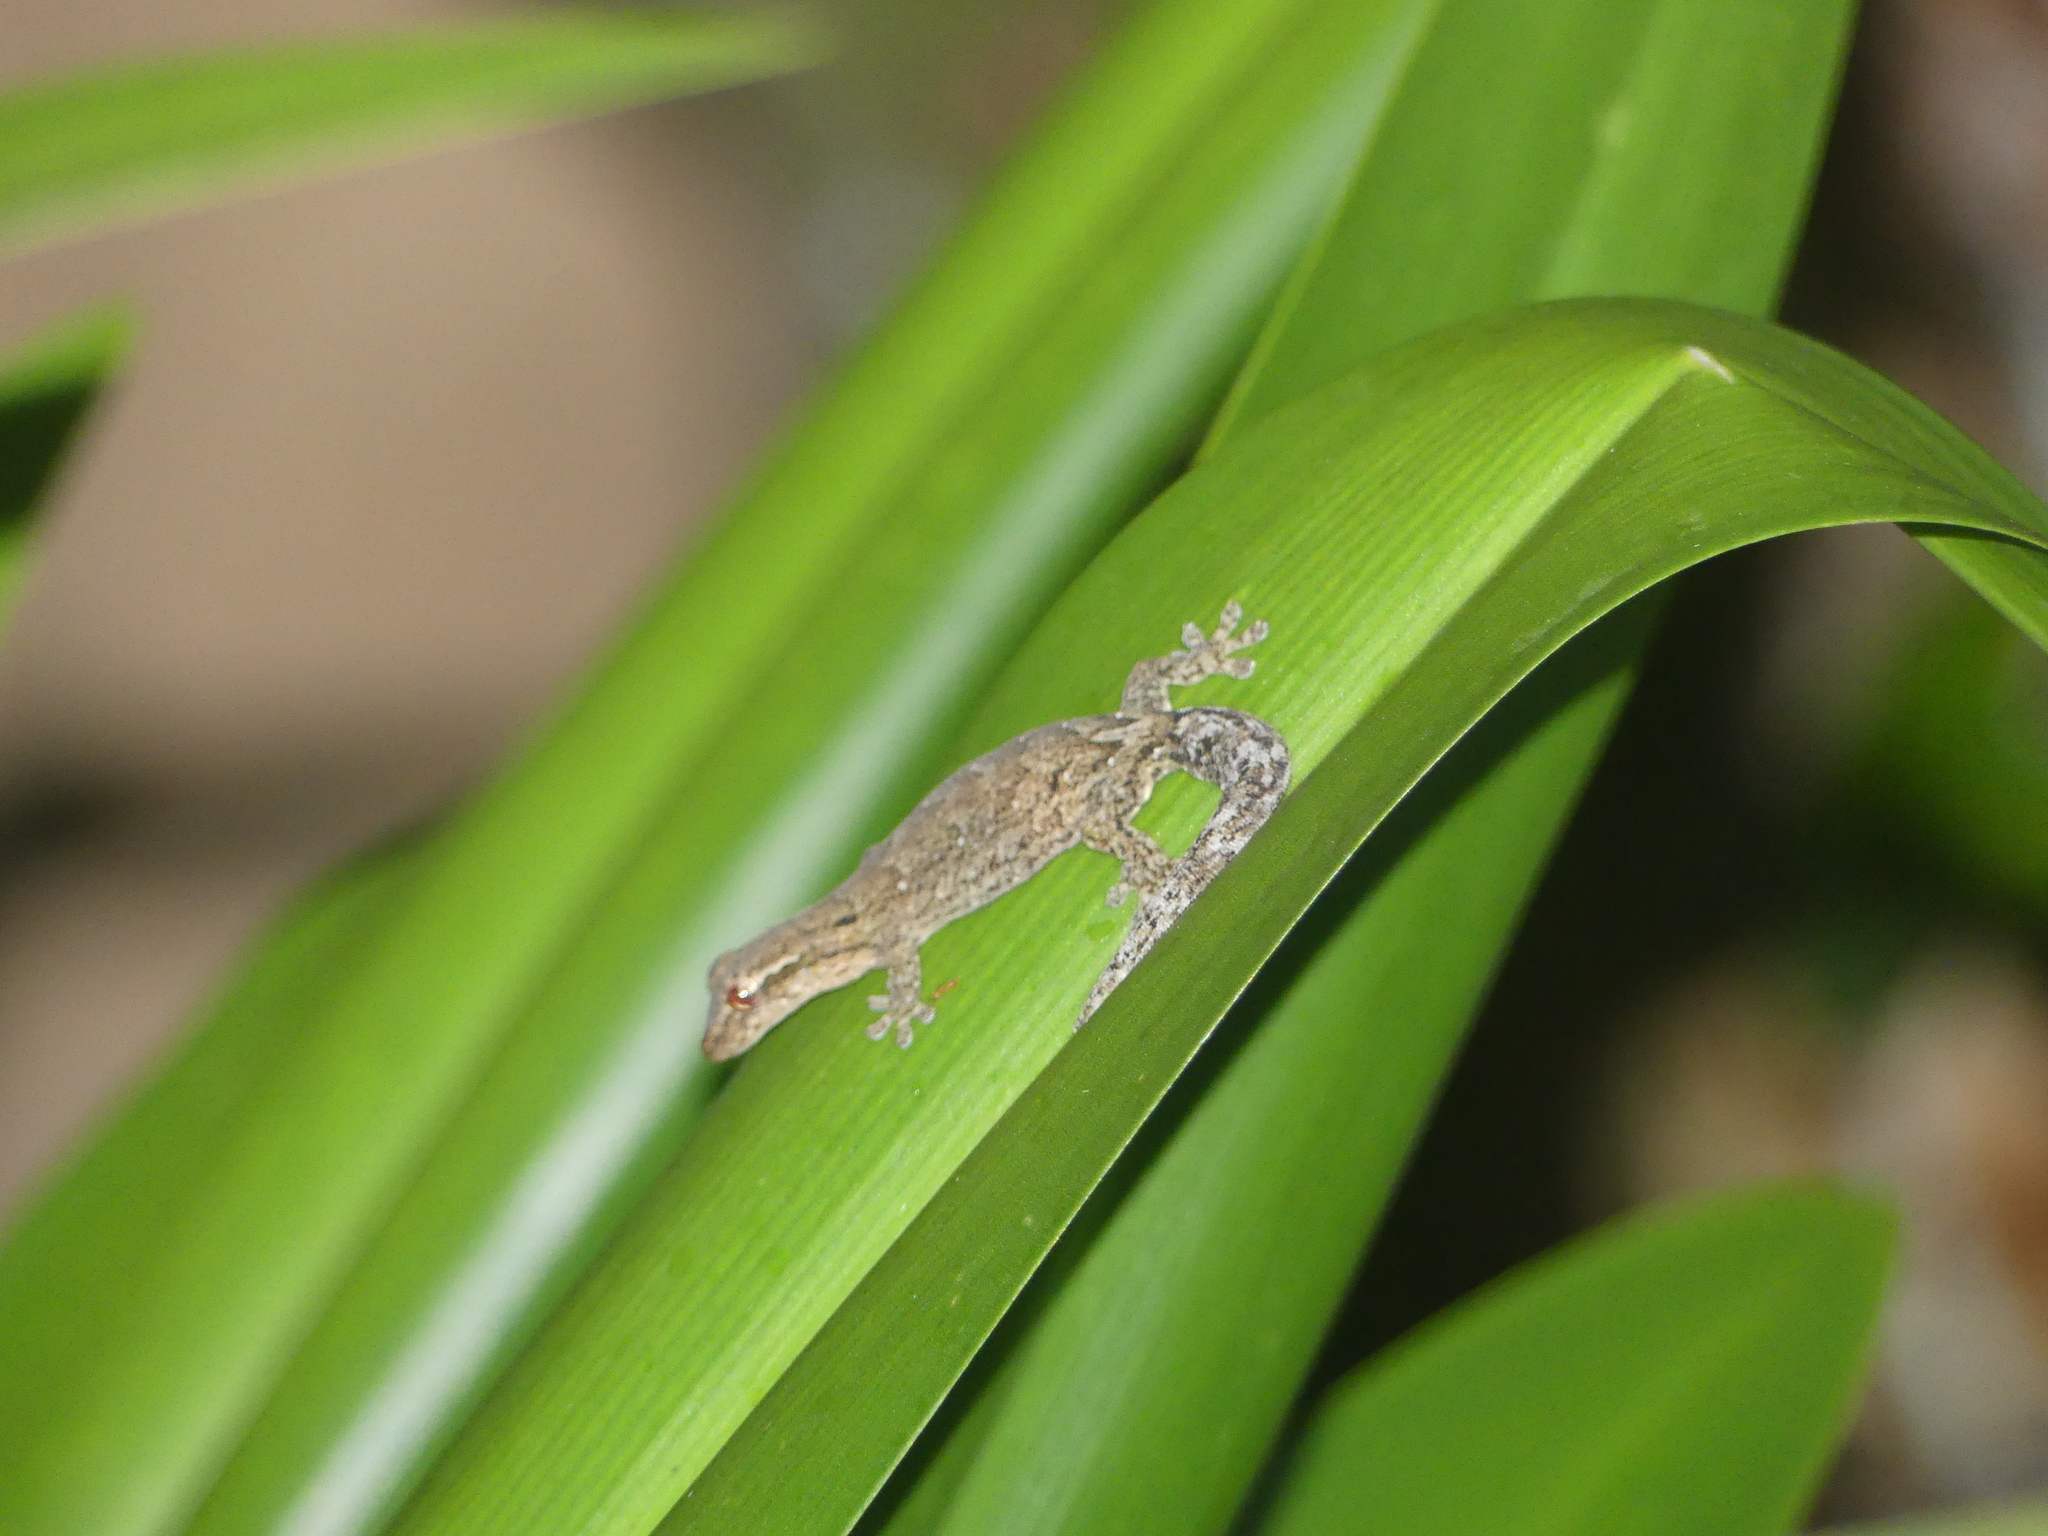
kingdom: Animalia
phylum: Chordata
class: Squamata
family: Gekkonidae
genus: Lepidodactylus
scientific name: Lepidodactylus lugubris
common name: Mourning gecko
